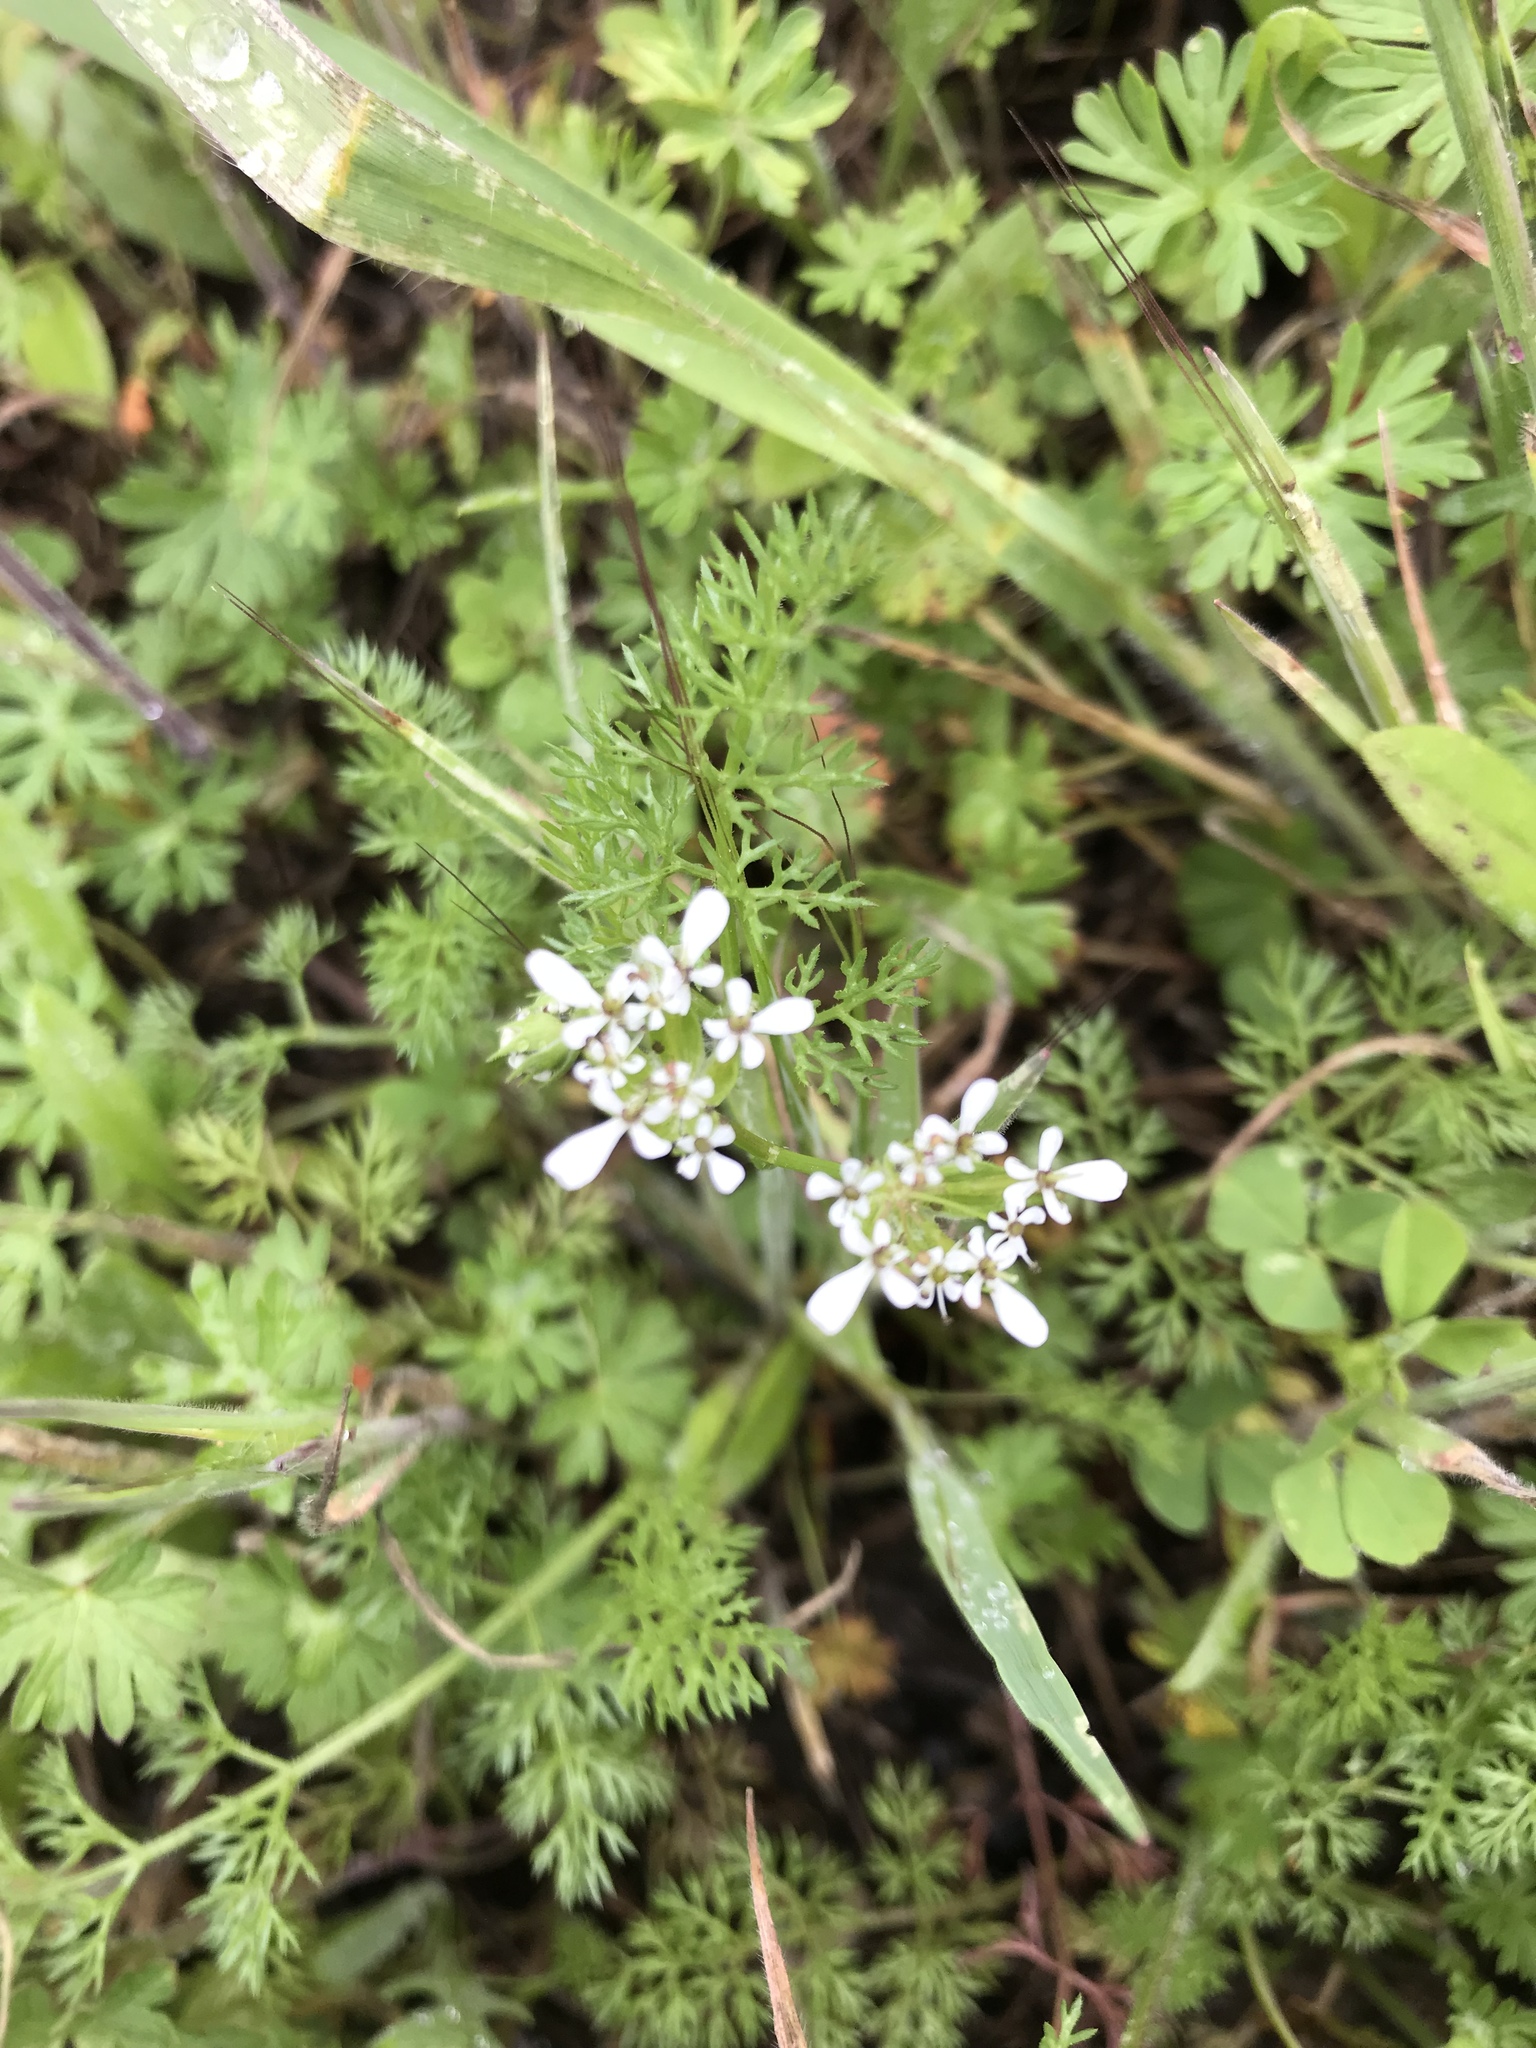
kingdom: Plantae
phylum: Tracheophyta
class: Magnoliopsida
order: Apiales
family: Apiaceae
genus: Scandix
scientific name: Scandix pecten-veneris
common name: Shepherd's-needle
